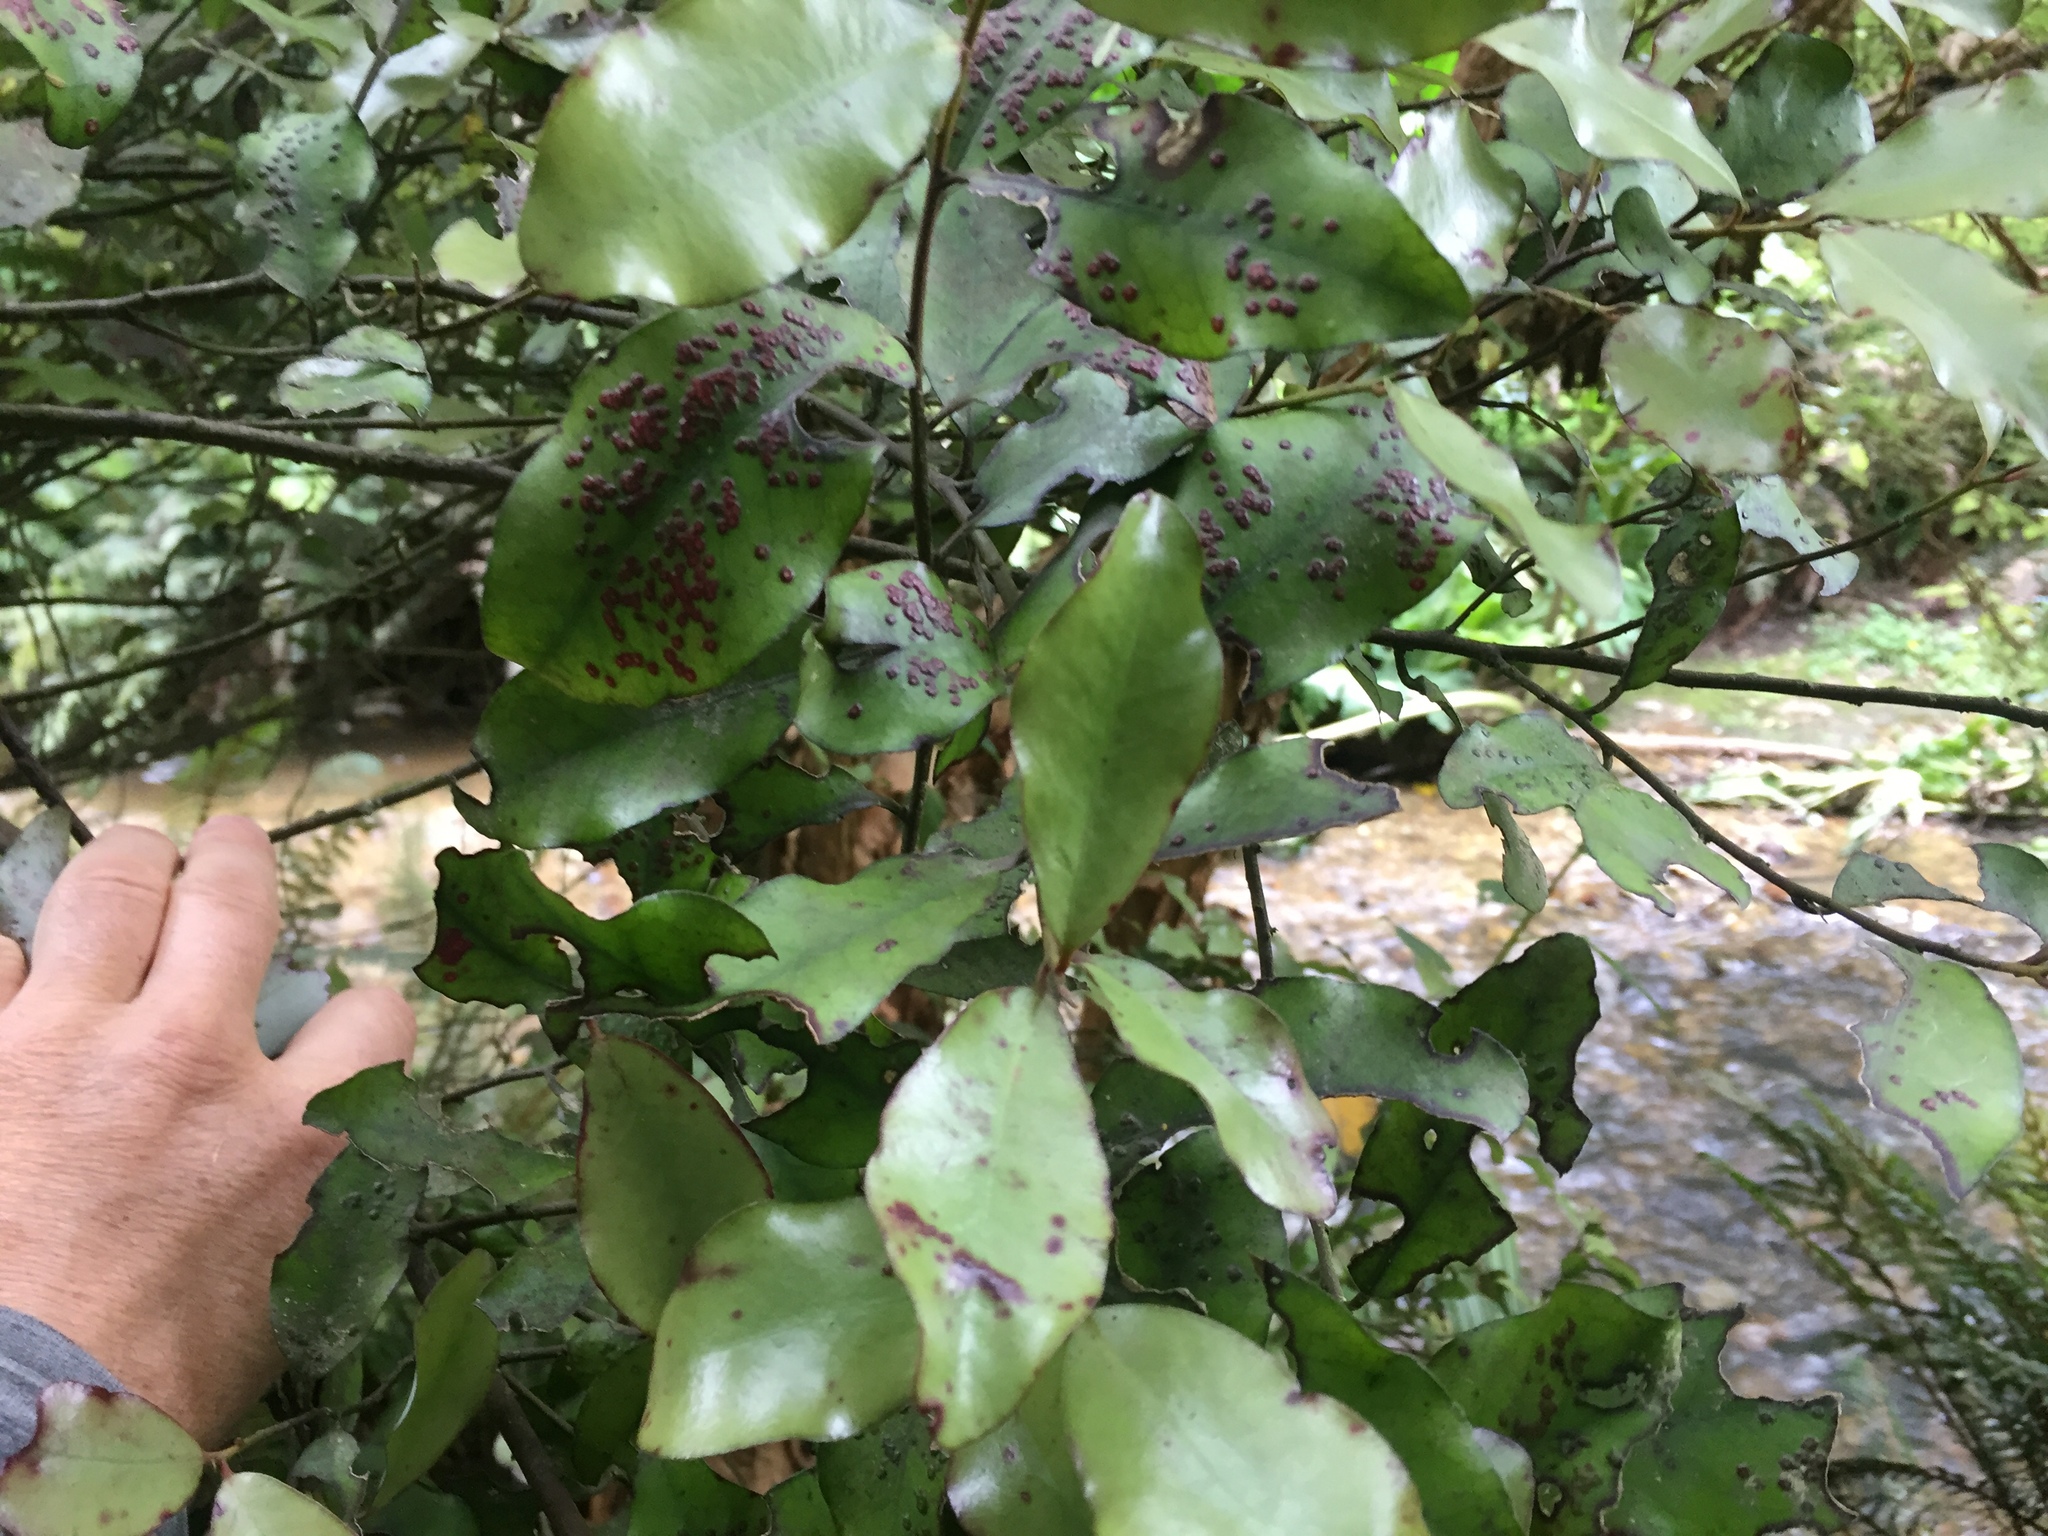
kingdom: Plantae
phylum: Tracheophyta
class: Magnoliopsida
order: Canellales
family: Winteraceae
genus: Pseudowintera
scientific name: Pseudowintera colorata
